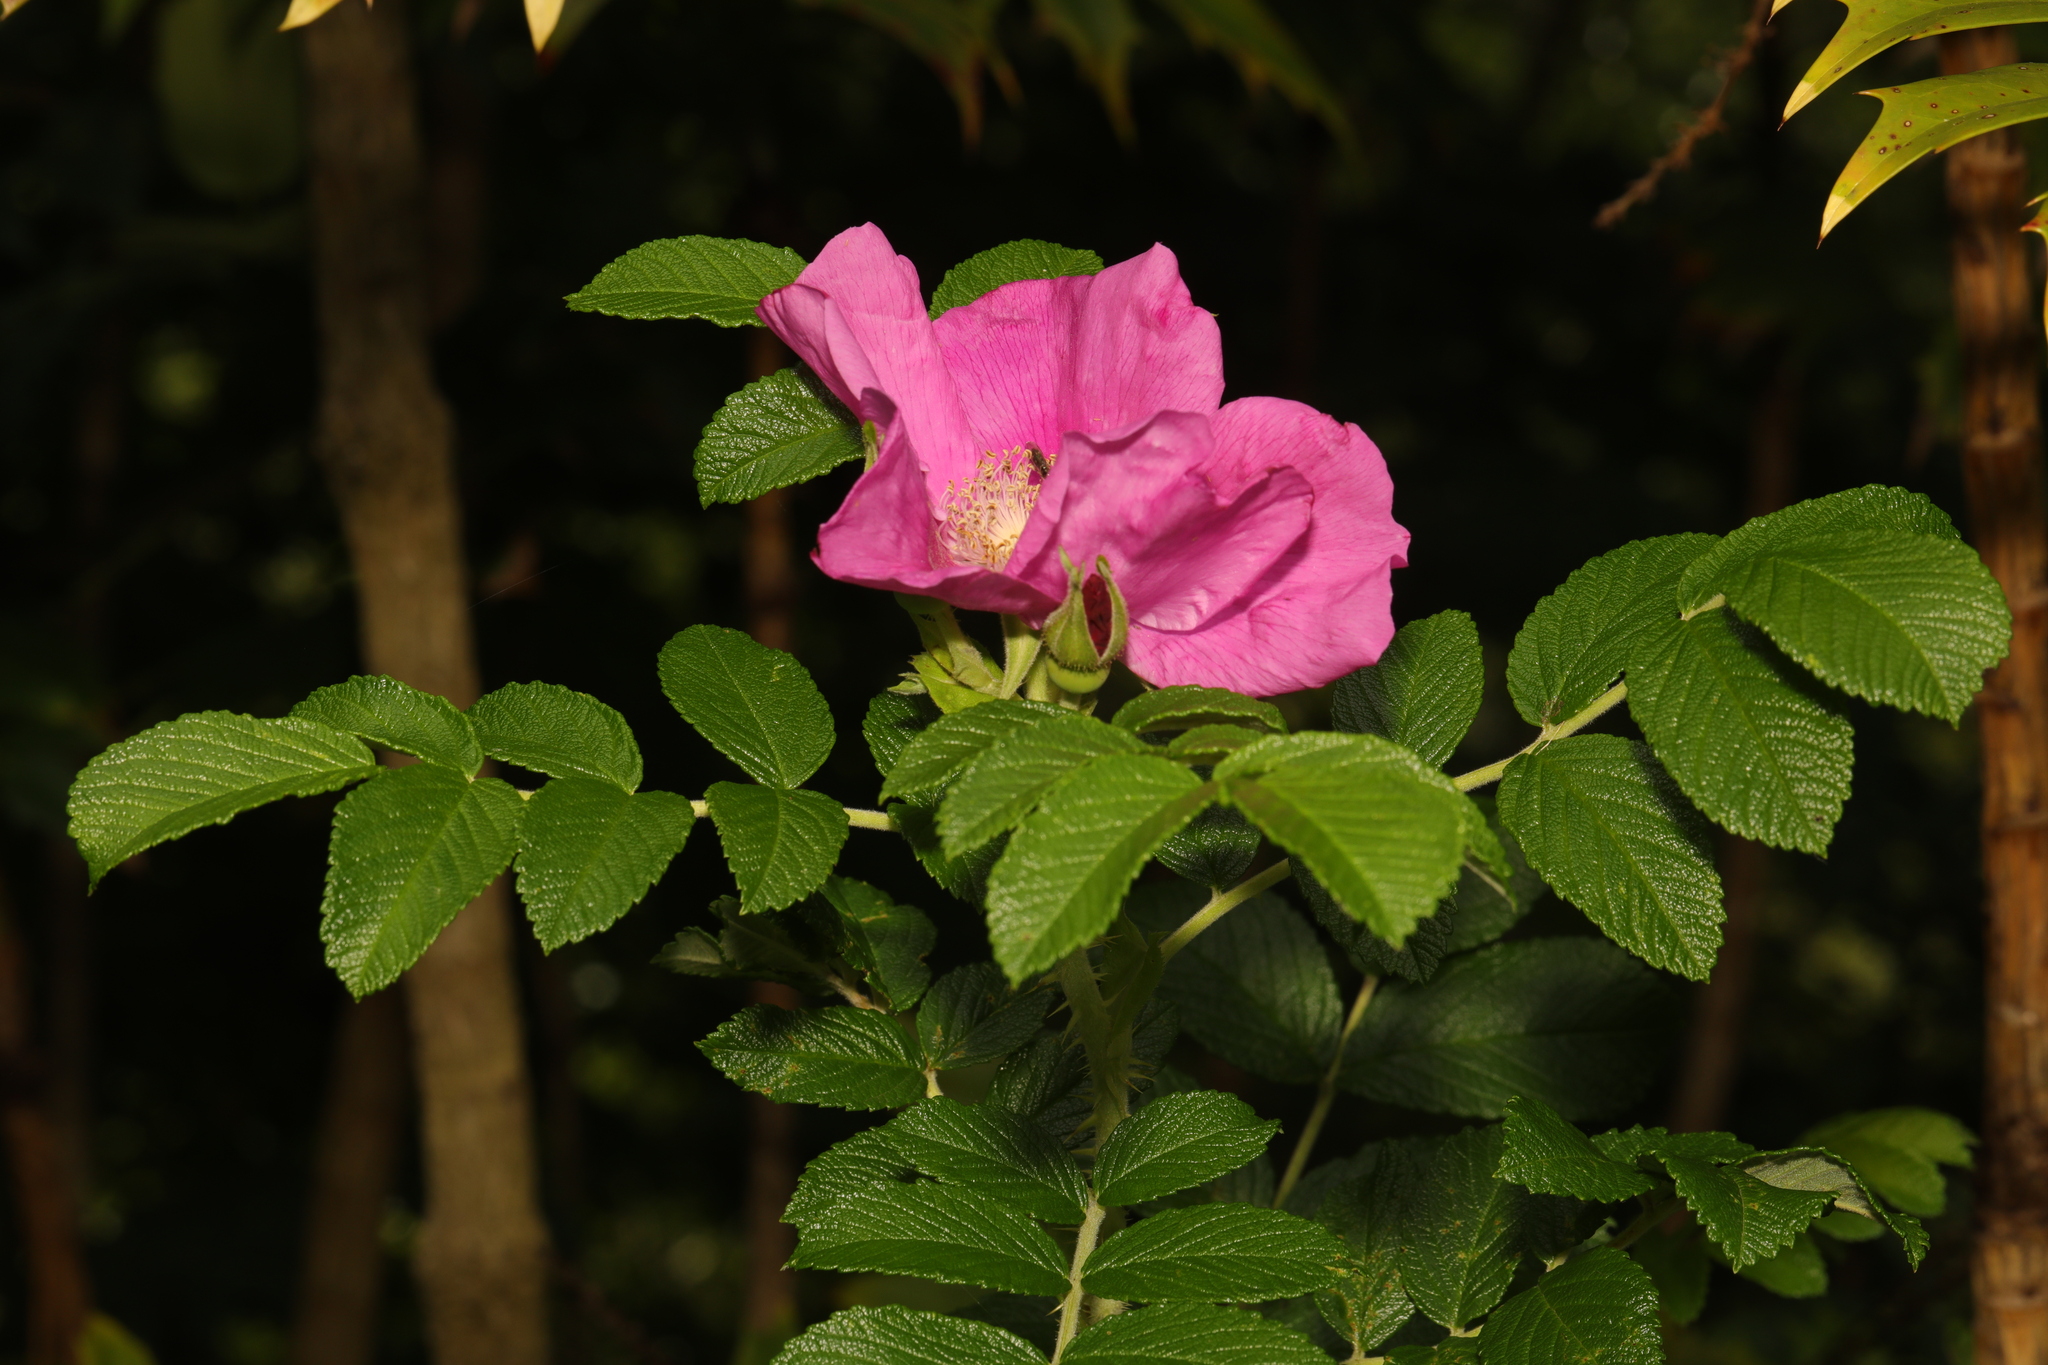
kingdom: Plantae
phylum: Tracheophyta
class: Magnoliopsida
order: Rosales
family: Rosaceae
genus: Rosa
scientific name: Rosa rugosa
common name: Japanese rose
